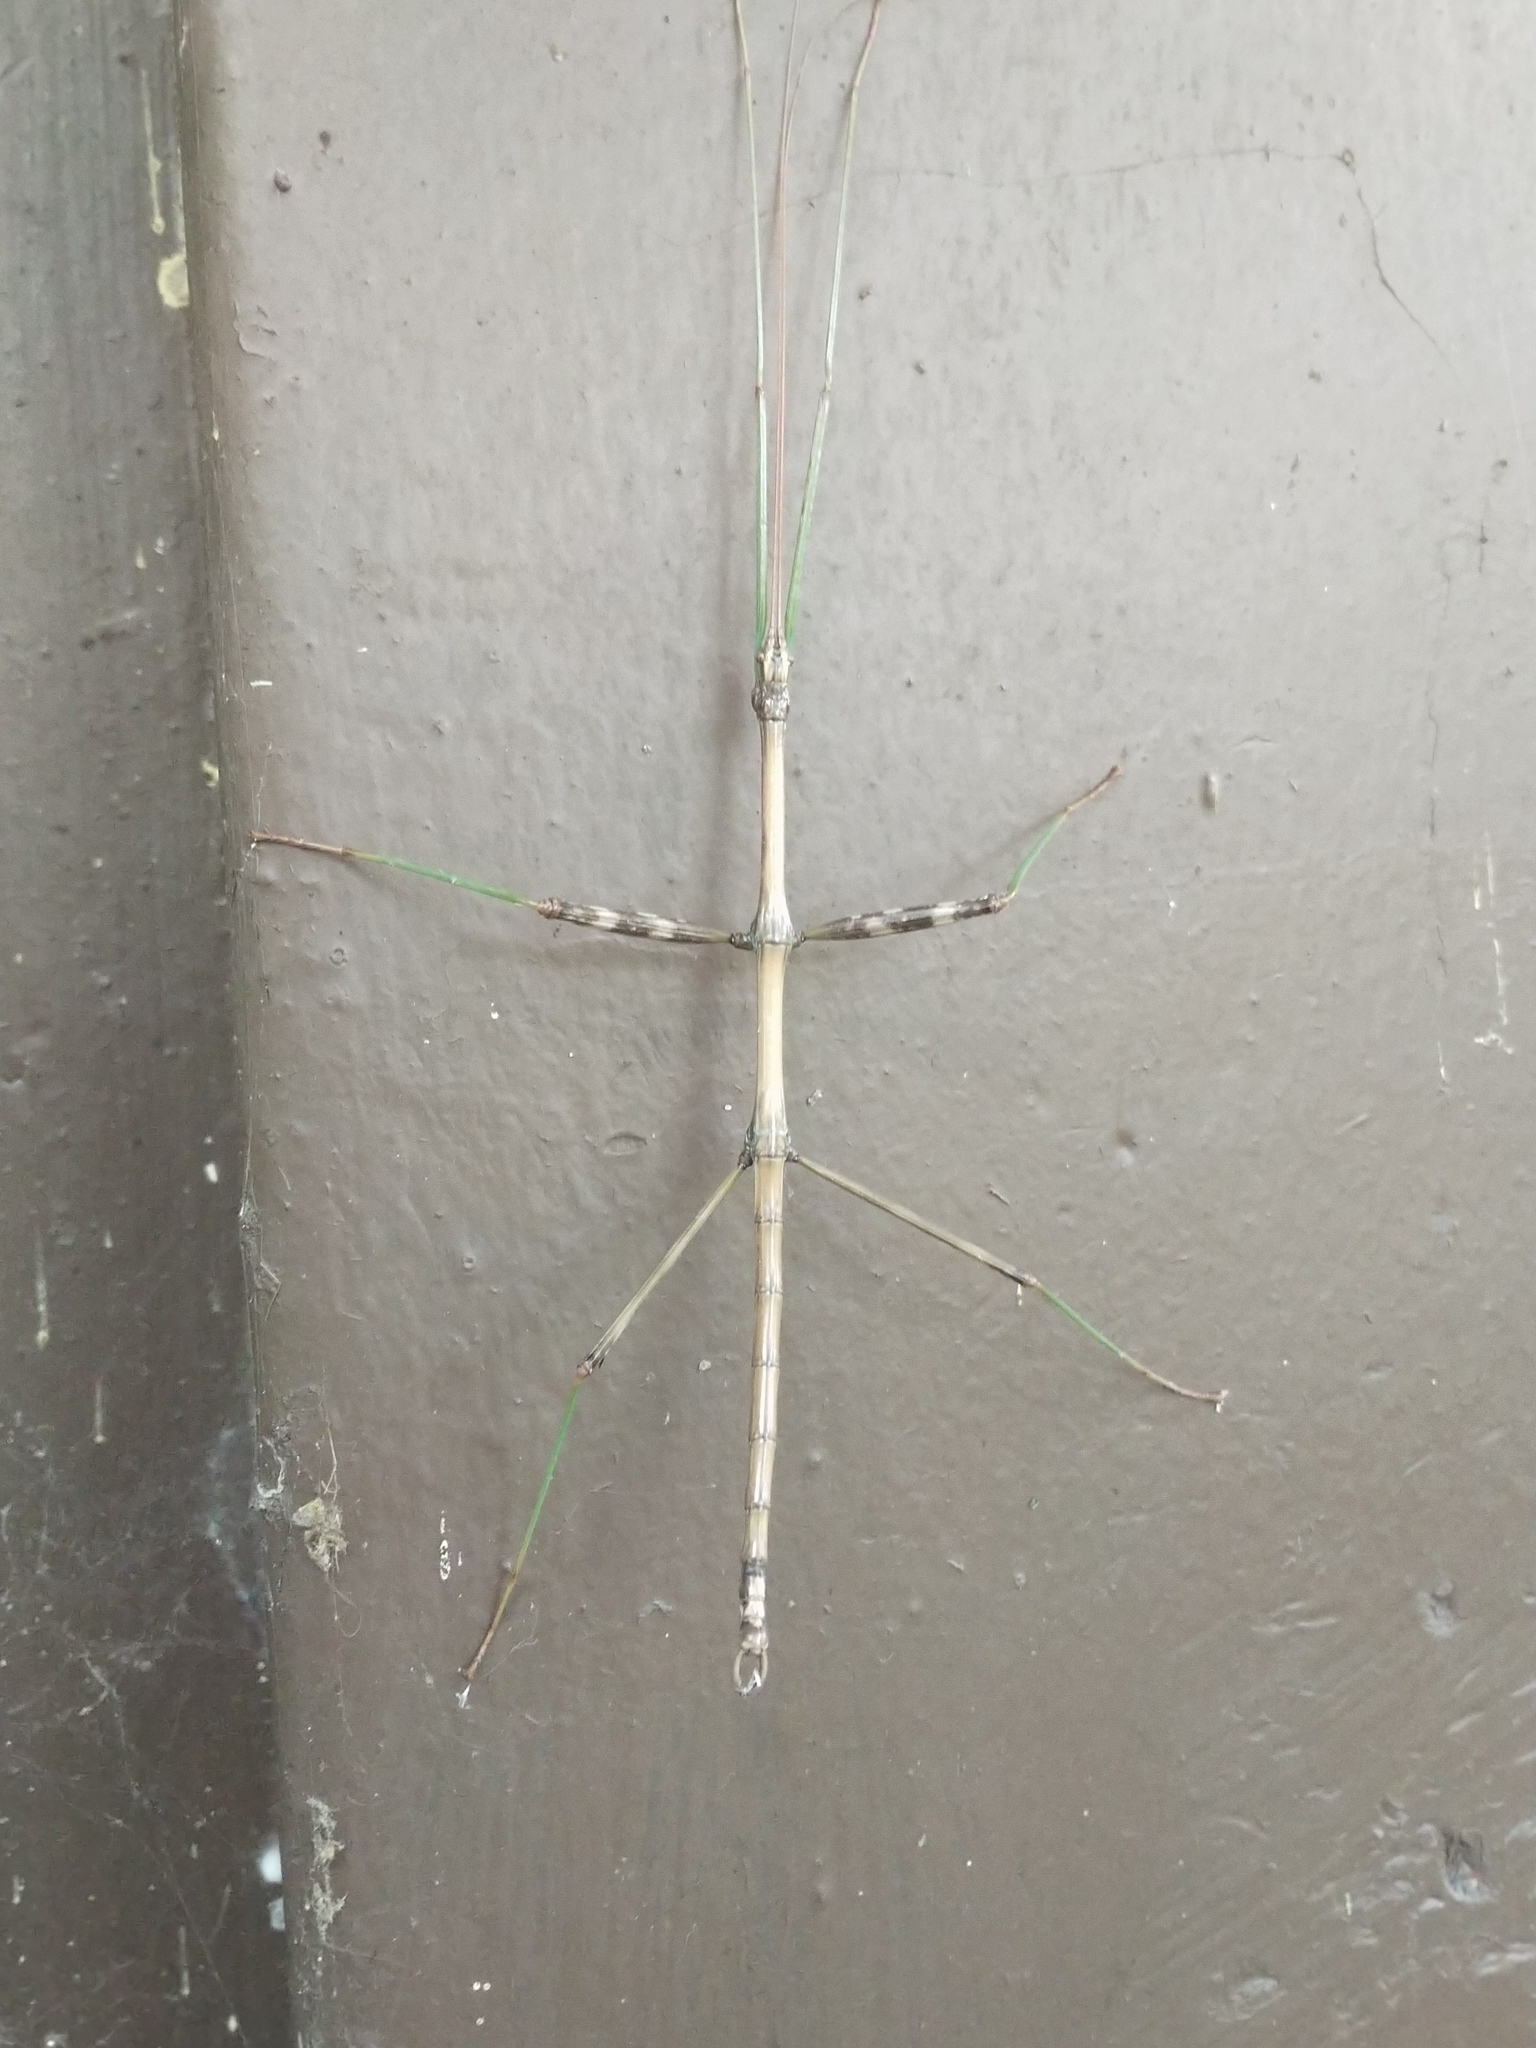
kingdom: Animalia
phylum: Arthropoda
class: Insecta
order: Phasmida
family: Diapheromeridae
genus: Diapheromera
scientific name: Diapheromera femorata
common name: Common american walkingstick
